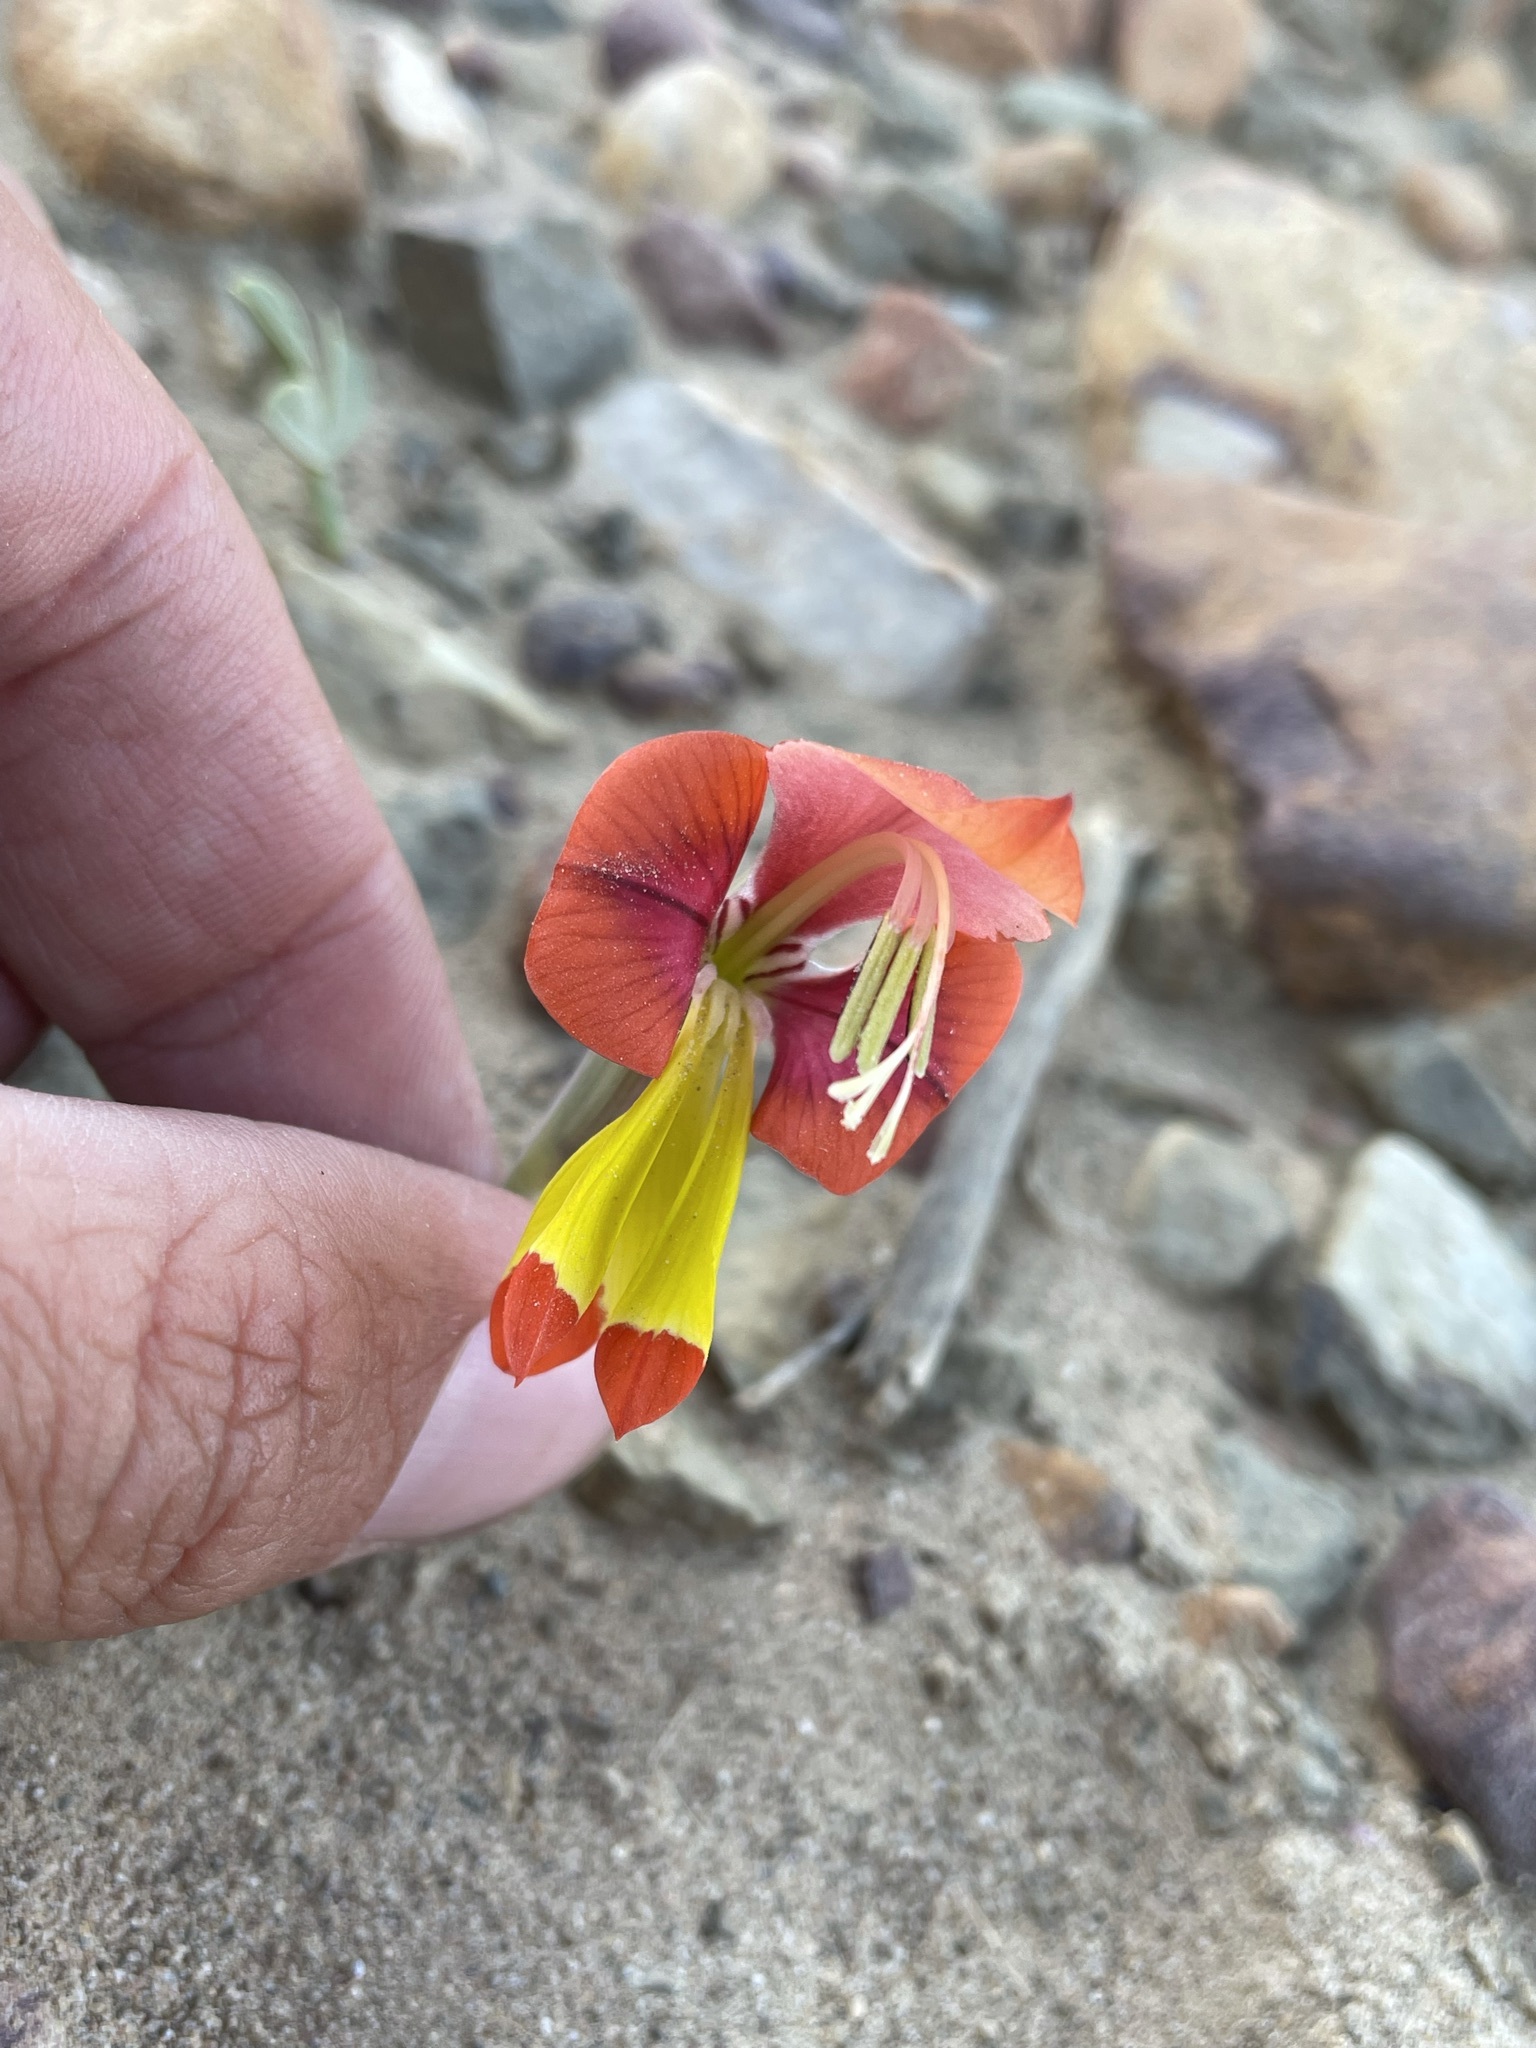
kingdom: Plantae
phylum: Tracheophyta
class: Liliopsida
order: Asparagales
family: Iridaceae
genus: Gladiolus
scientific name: Gladiolus alatus
